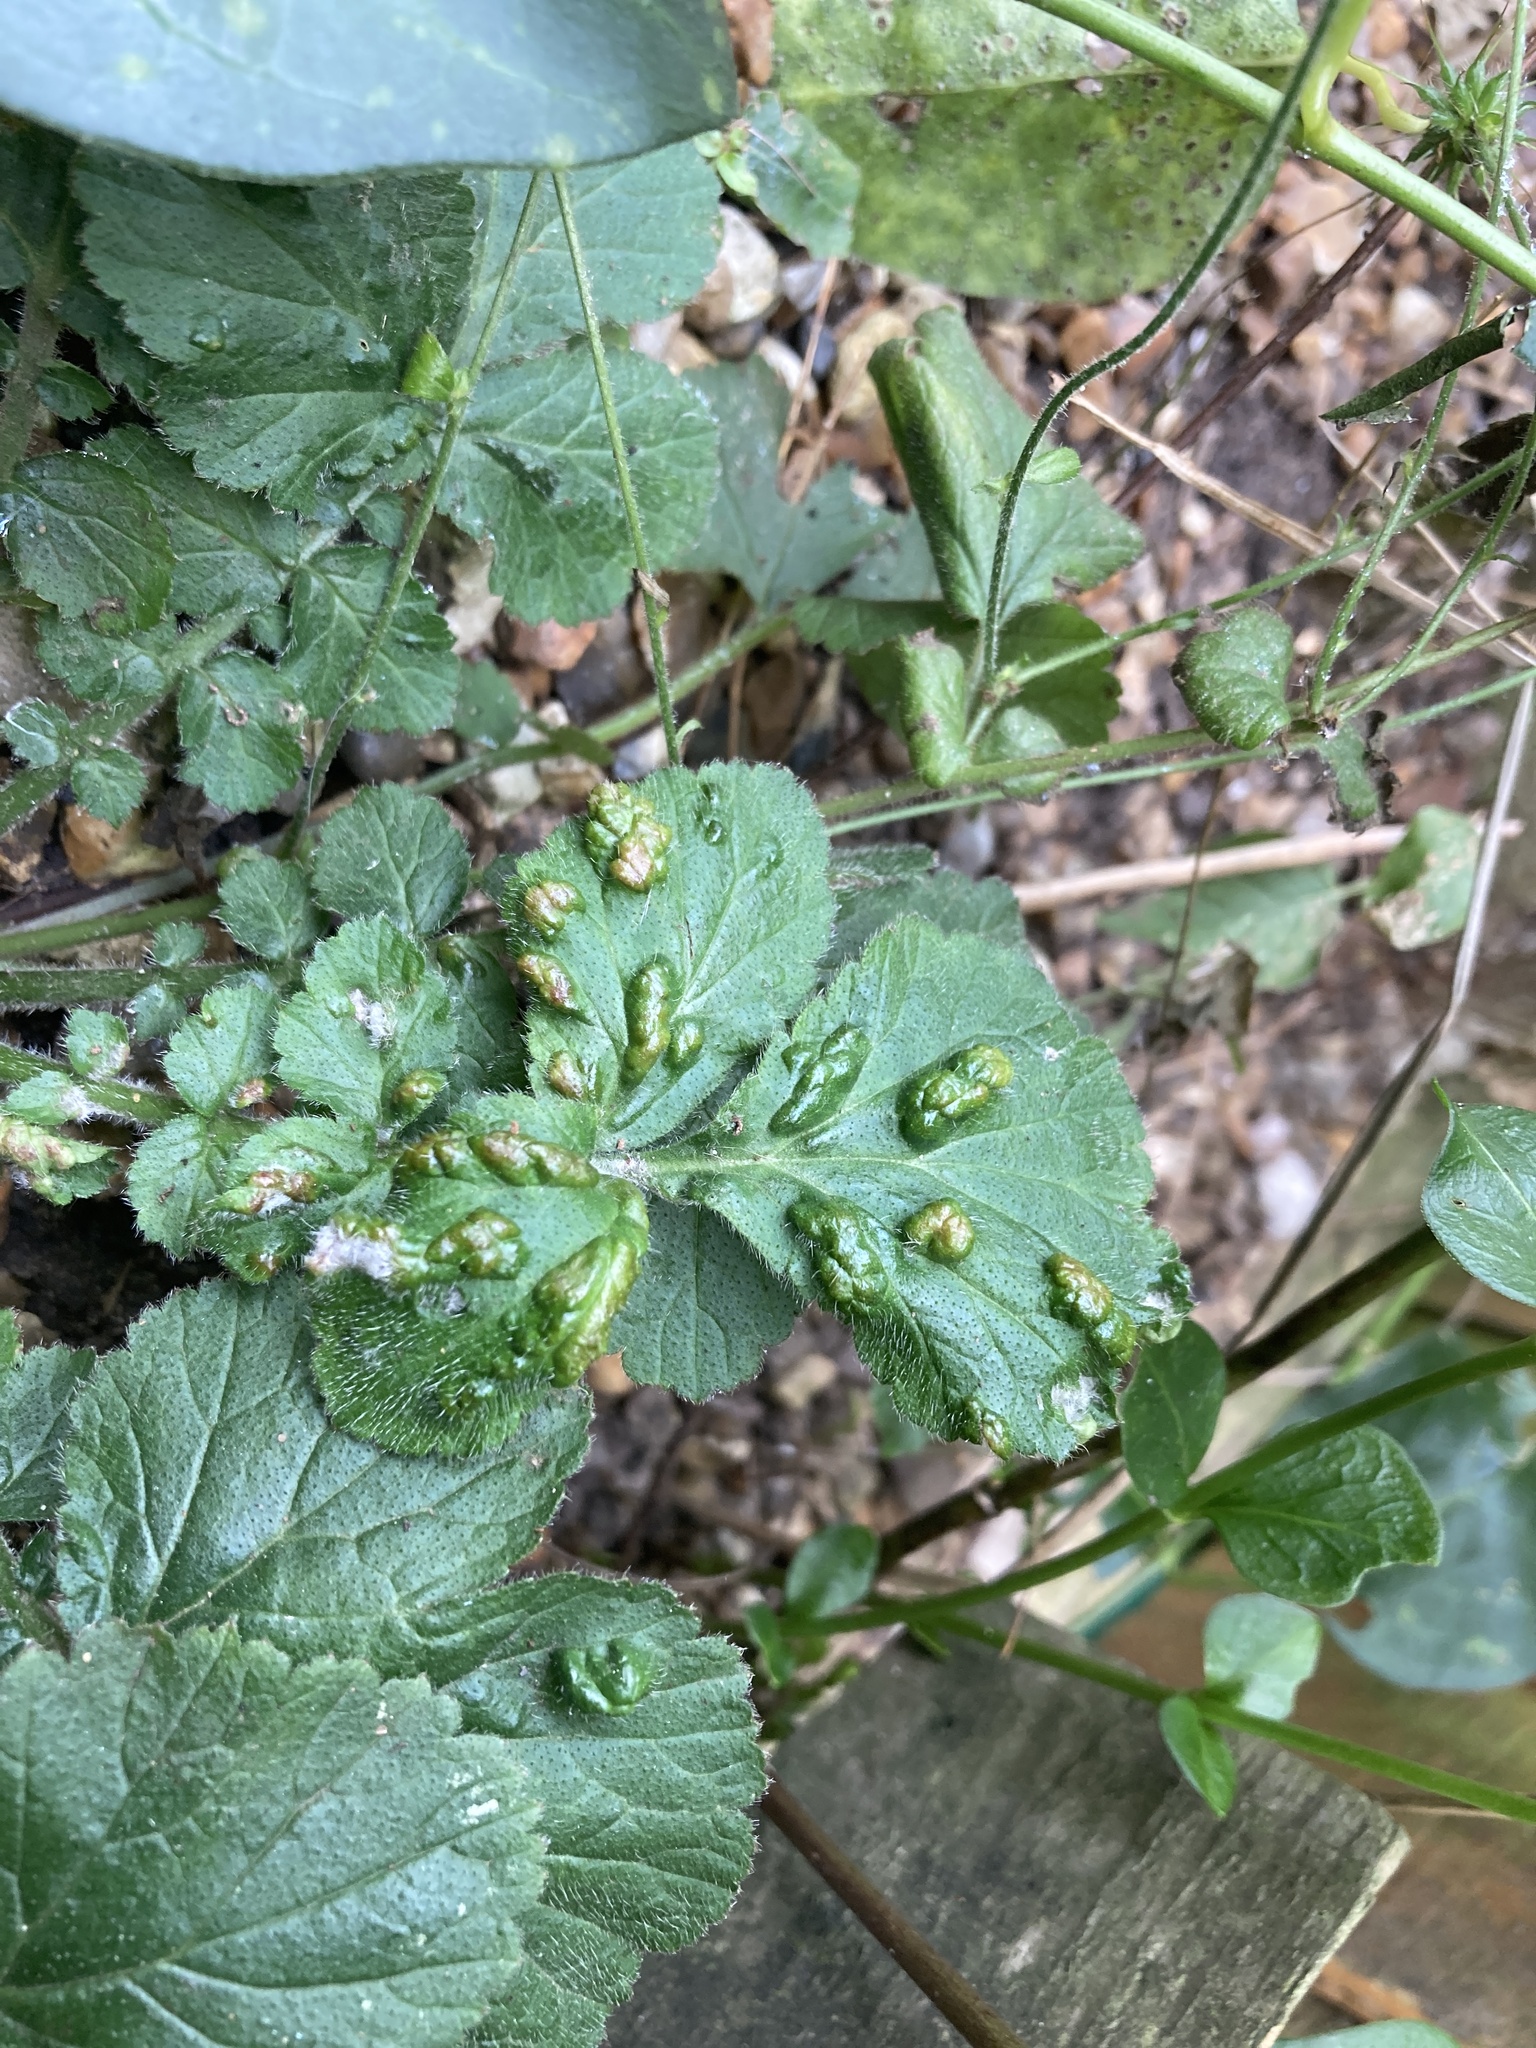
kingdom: Animalia
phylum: Arthropoda
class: Arachnida
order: Trombidiformes
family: Eriophyidae
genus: Cecidophyes
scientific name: Cecidophyes nudus
